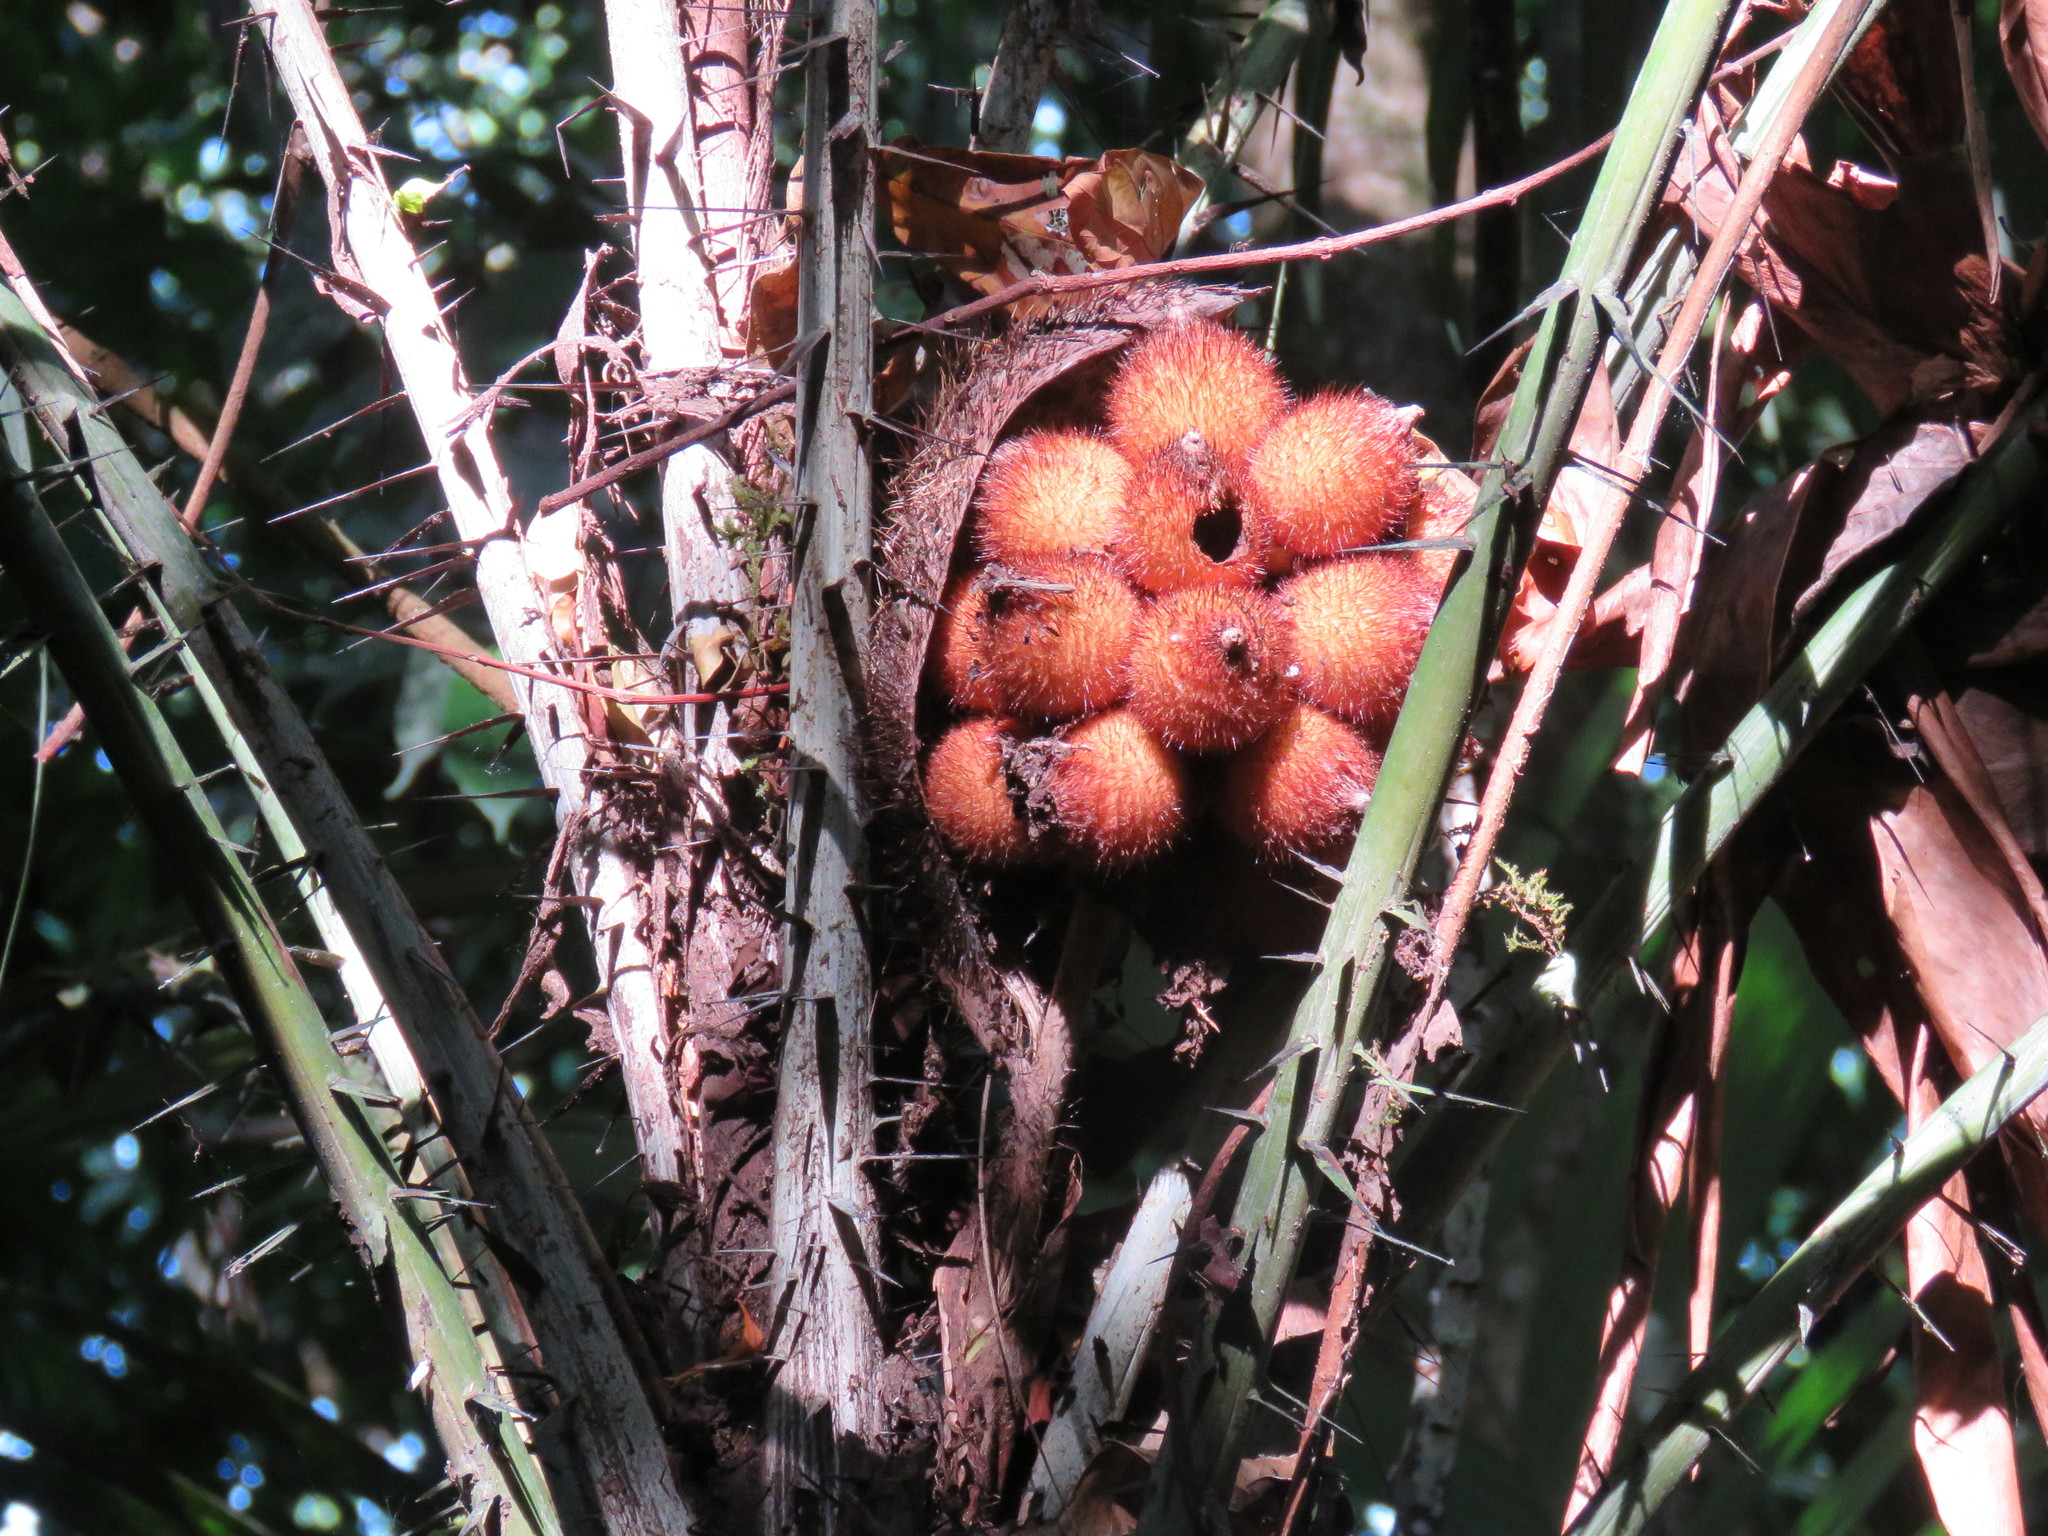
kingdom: Plantae
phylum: Tracheophyta
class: Liliopsida
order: Arecales
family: Arecaceae
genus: Astrocaryum
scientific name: Astrocaryum mexicanum
